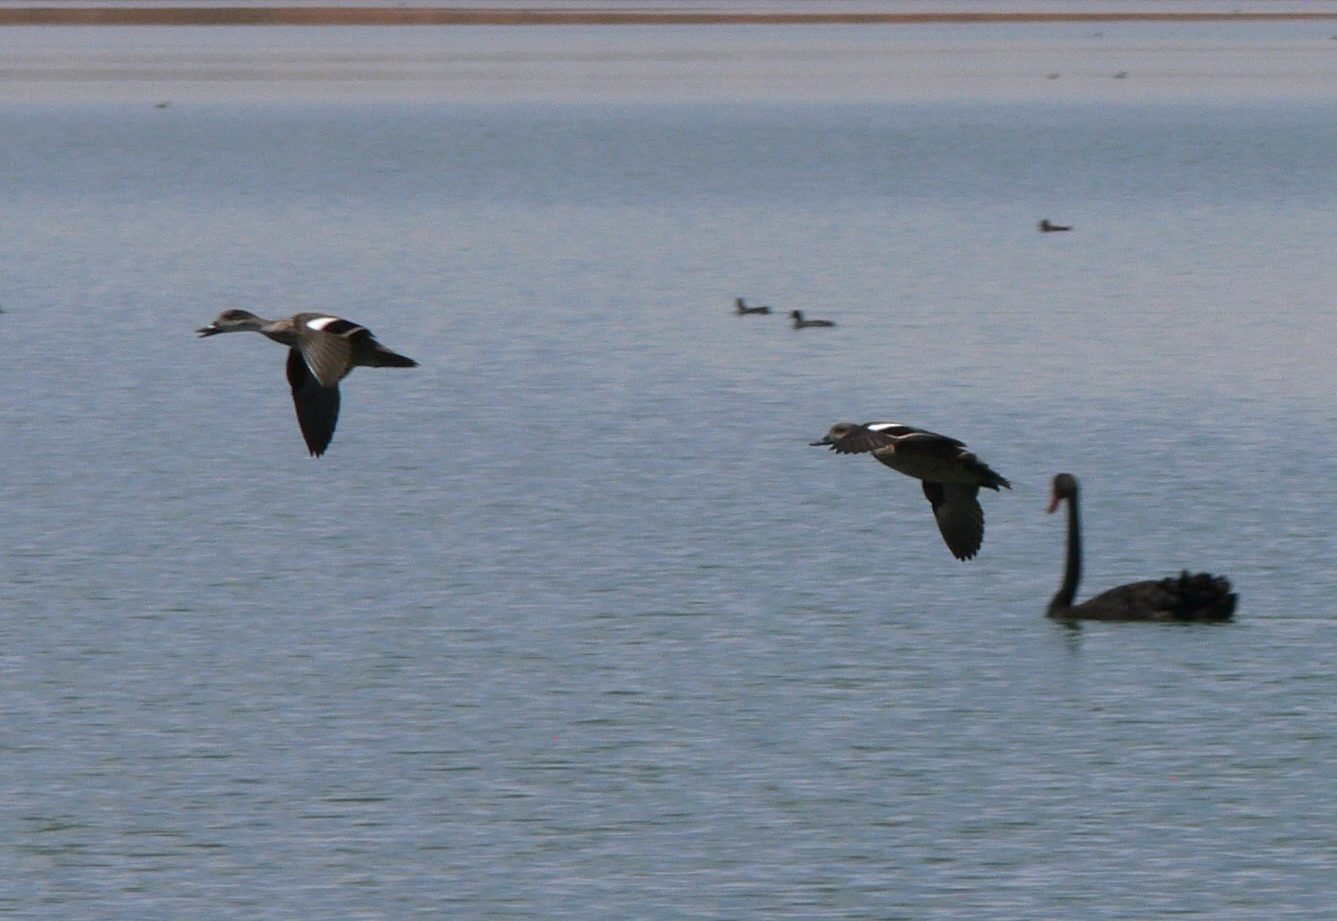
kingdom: Animalia
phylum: Chordata
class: Aves
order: Anseriformes
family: Anatidae
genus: Anas
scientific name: Anas gracilis
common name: Grey teal
